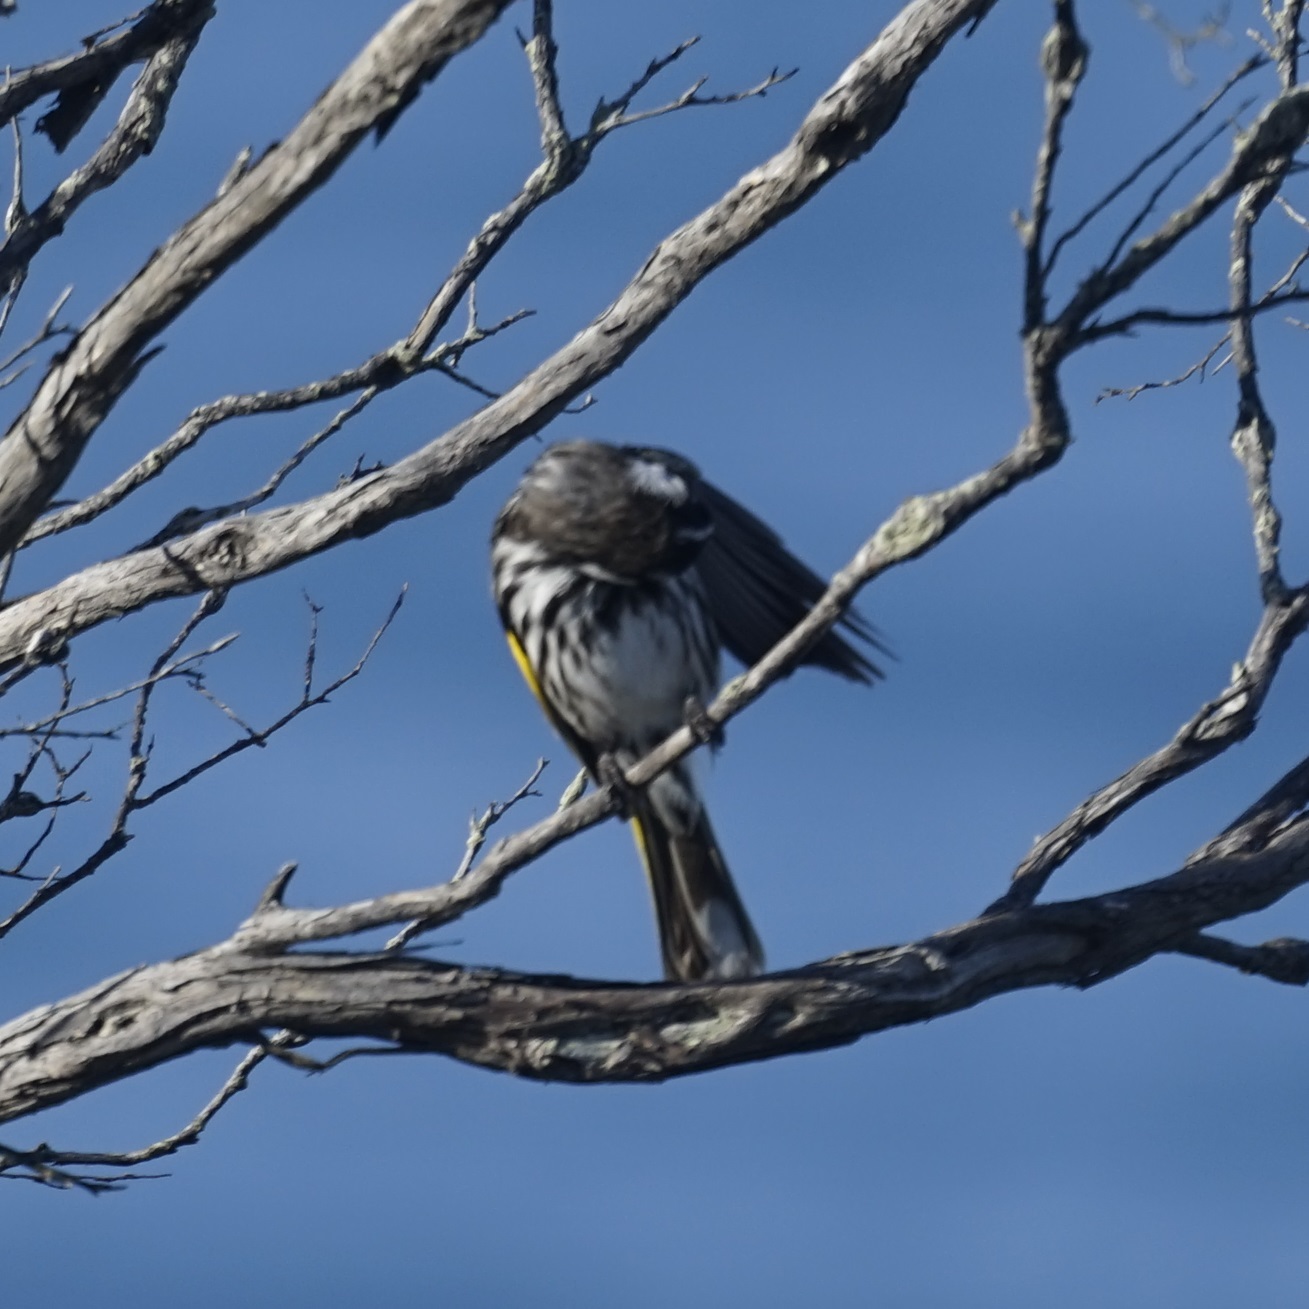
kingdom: Animalia
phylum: Chordata
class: Aves
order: Passeriformes
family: Meliphagidae
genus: Phylidonyris
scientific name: Phylidonyris novaehollandiae
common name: New holland honeyeater
